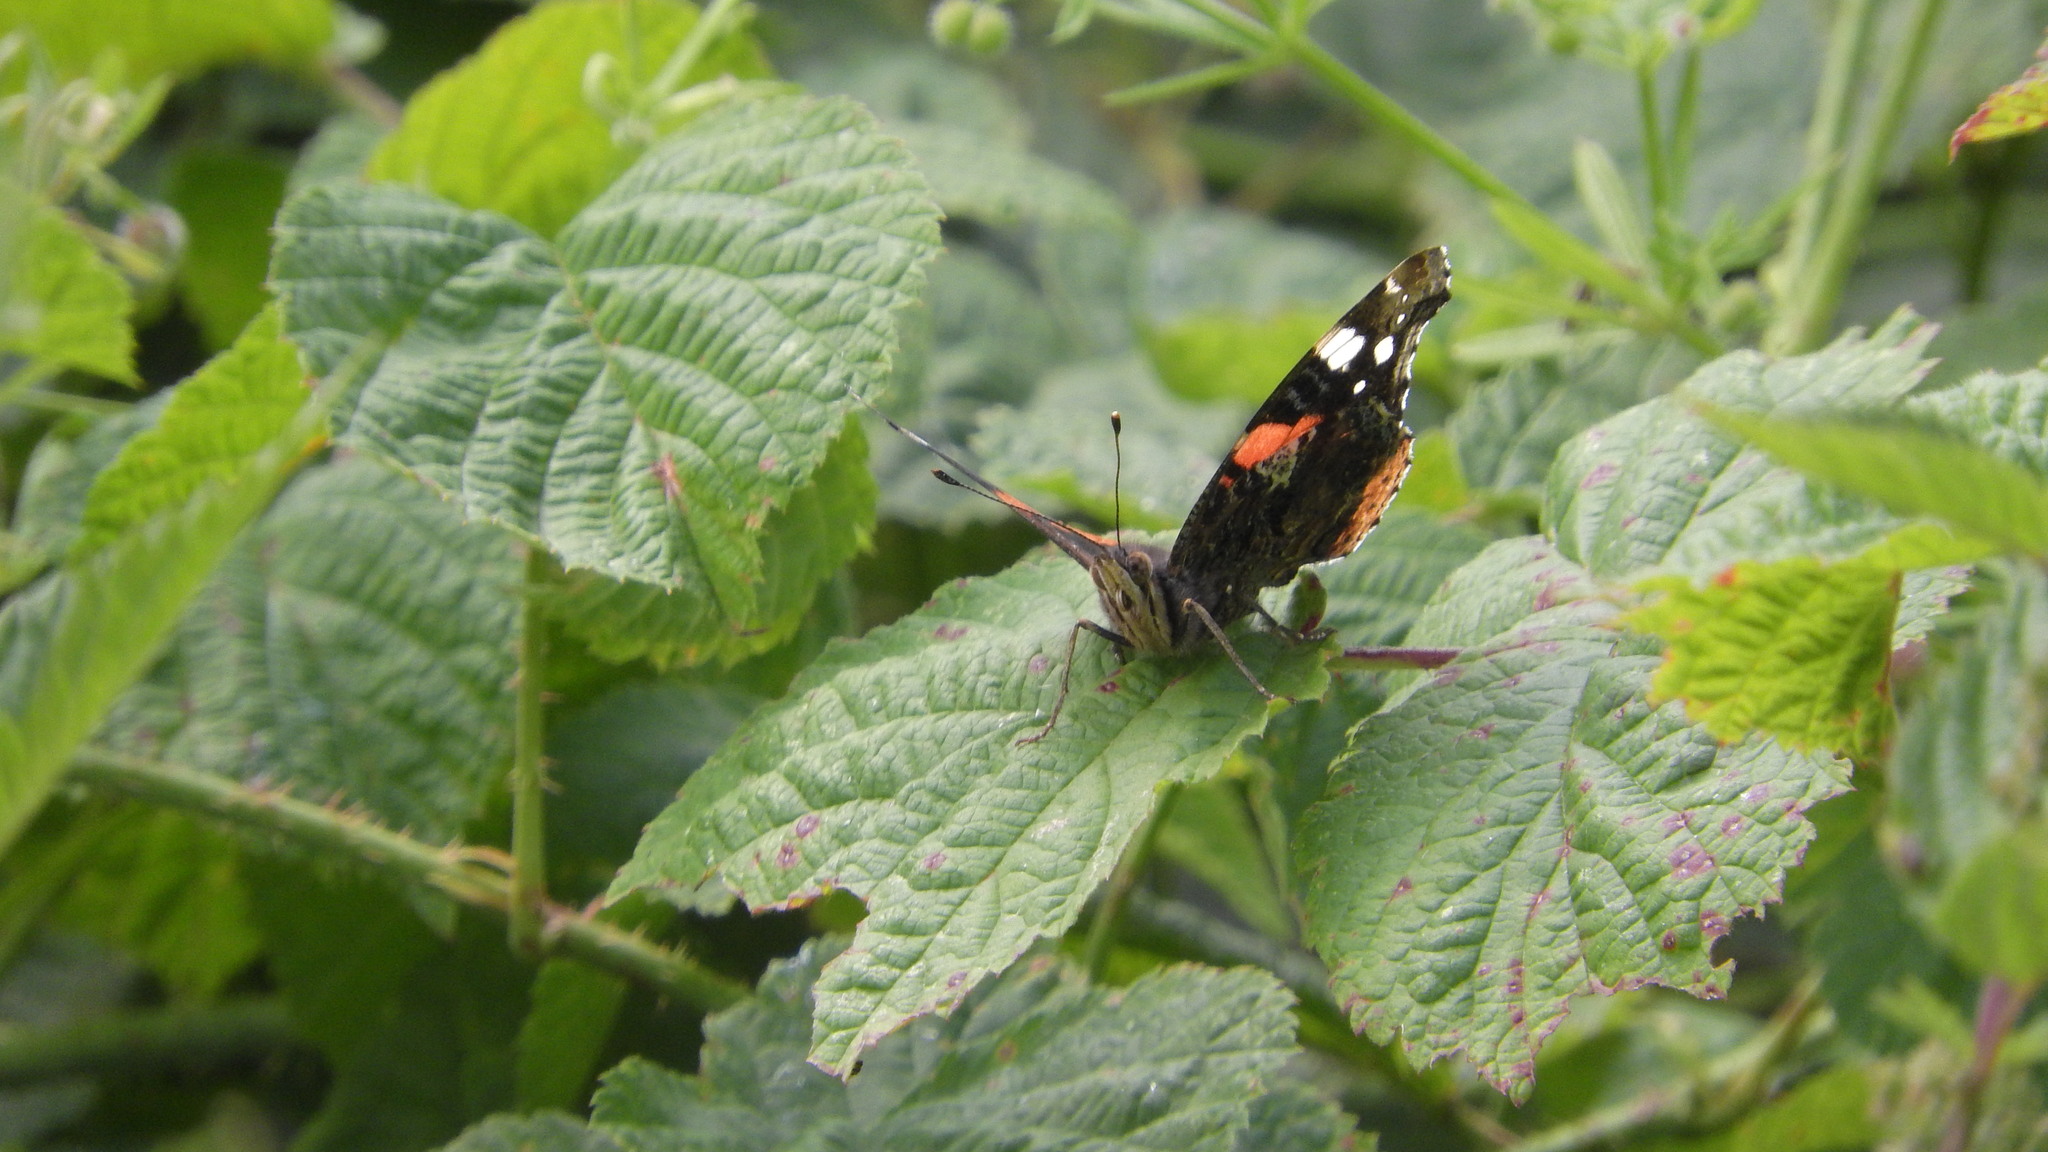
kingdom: Animalia
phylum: Arthropoda
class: Insecta
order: Lepidoptera
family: Nymphalidae
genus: Vanessa
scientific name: Vanessa atalanta
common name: Red admiral
